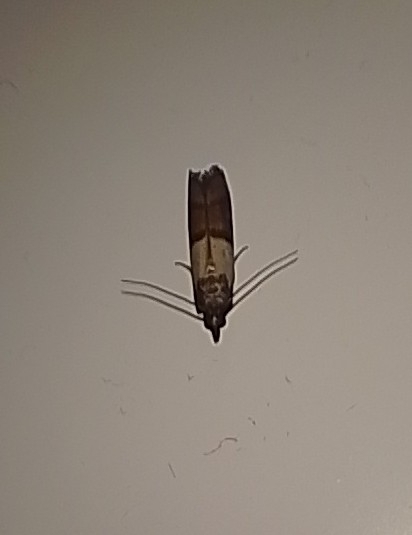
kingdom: Animalia
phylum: Arthropoda
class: Insecta
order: Lepidoptera
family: Pyralidae
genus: Plodia
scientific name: Plodia interpunctella
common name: Indian meal moth
